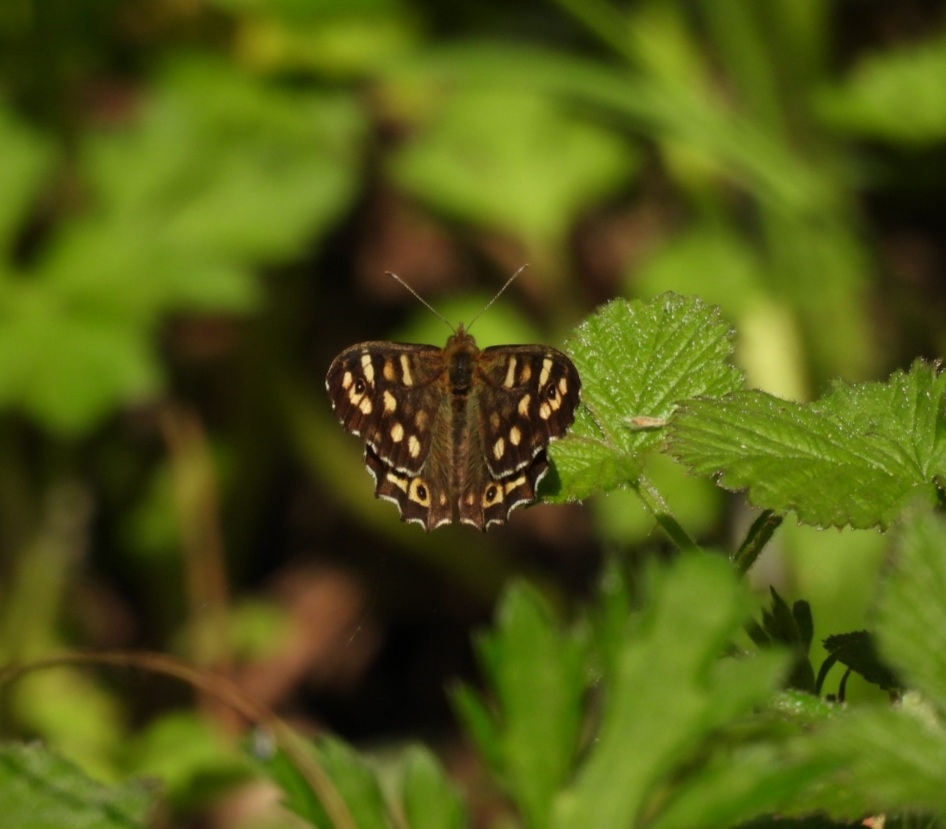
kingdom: Animalia
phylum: Arthropoda
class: Insecta
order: Lepidoptera
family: Nymphalidae
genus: Pararge
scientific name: Pararge aegeria
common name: Speckled wood
